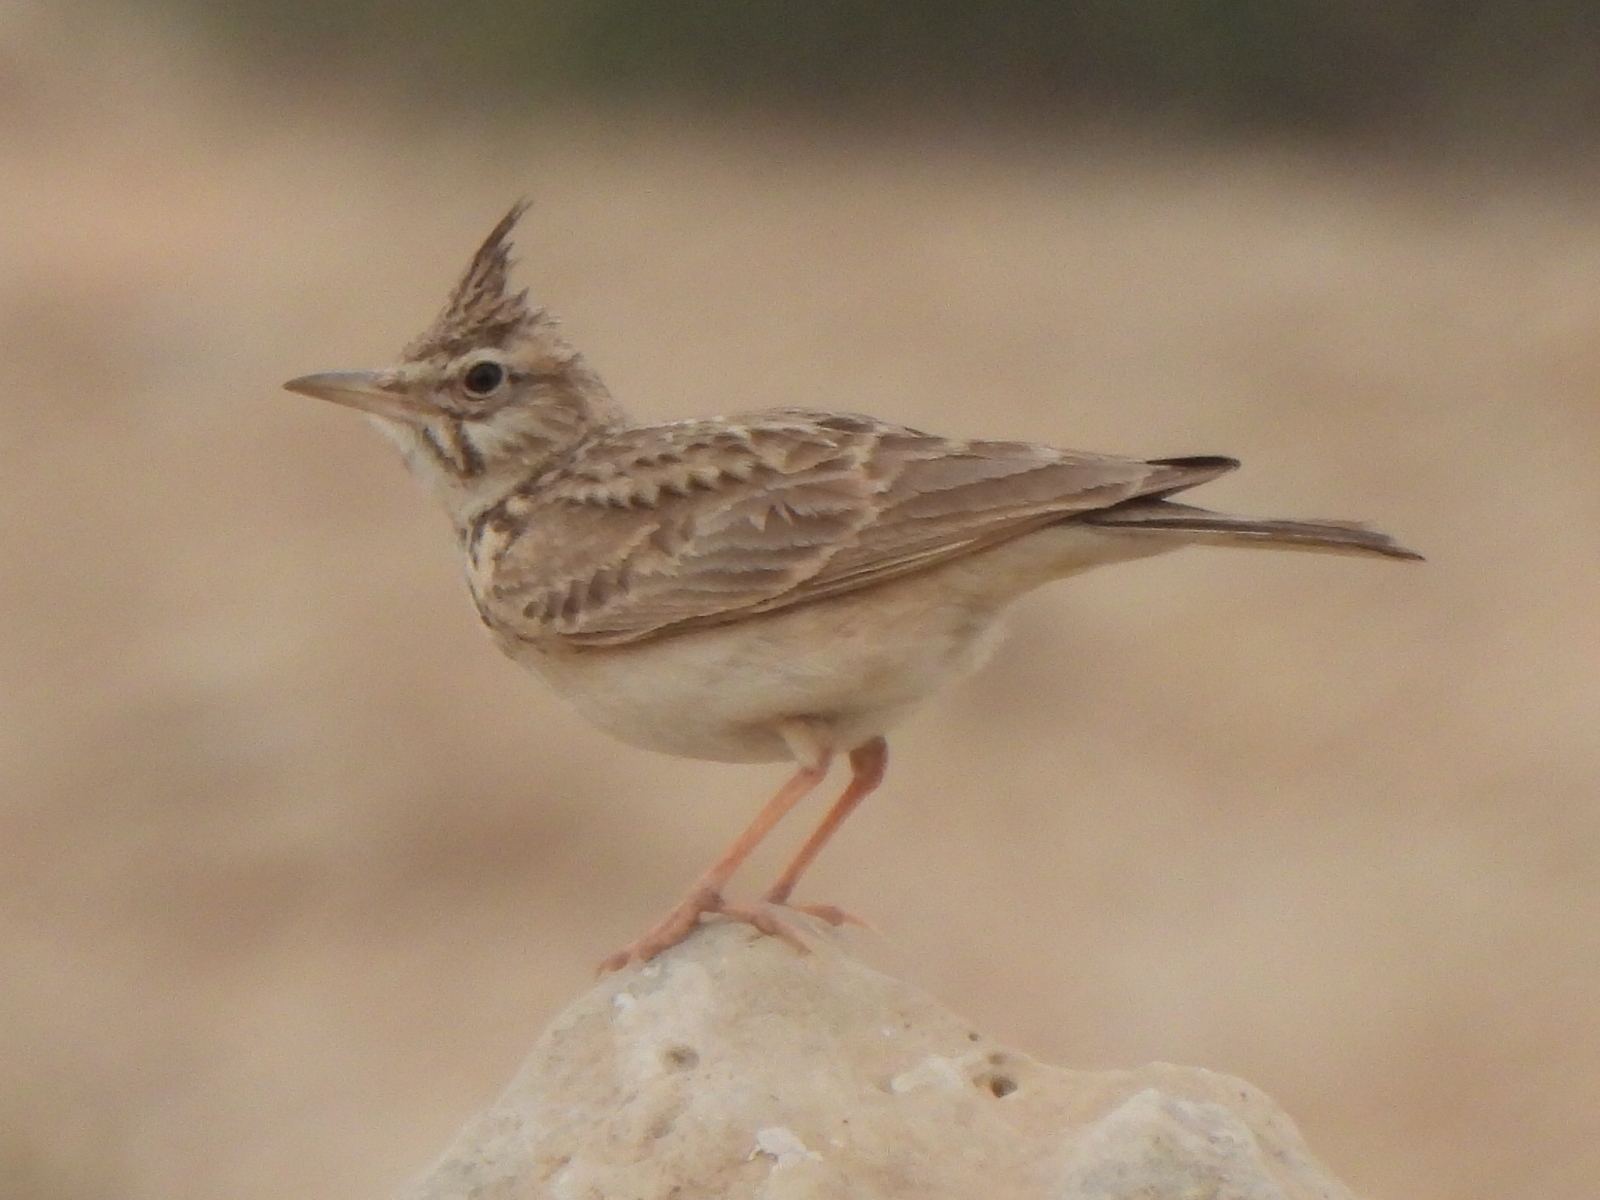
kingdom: Animalia
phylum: Chordata
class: Aves
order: Passeriformes
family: Alaudidae
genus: Galerida
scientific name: Galerida cristata
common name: Crested lark
